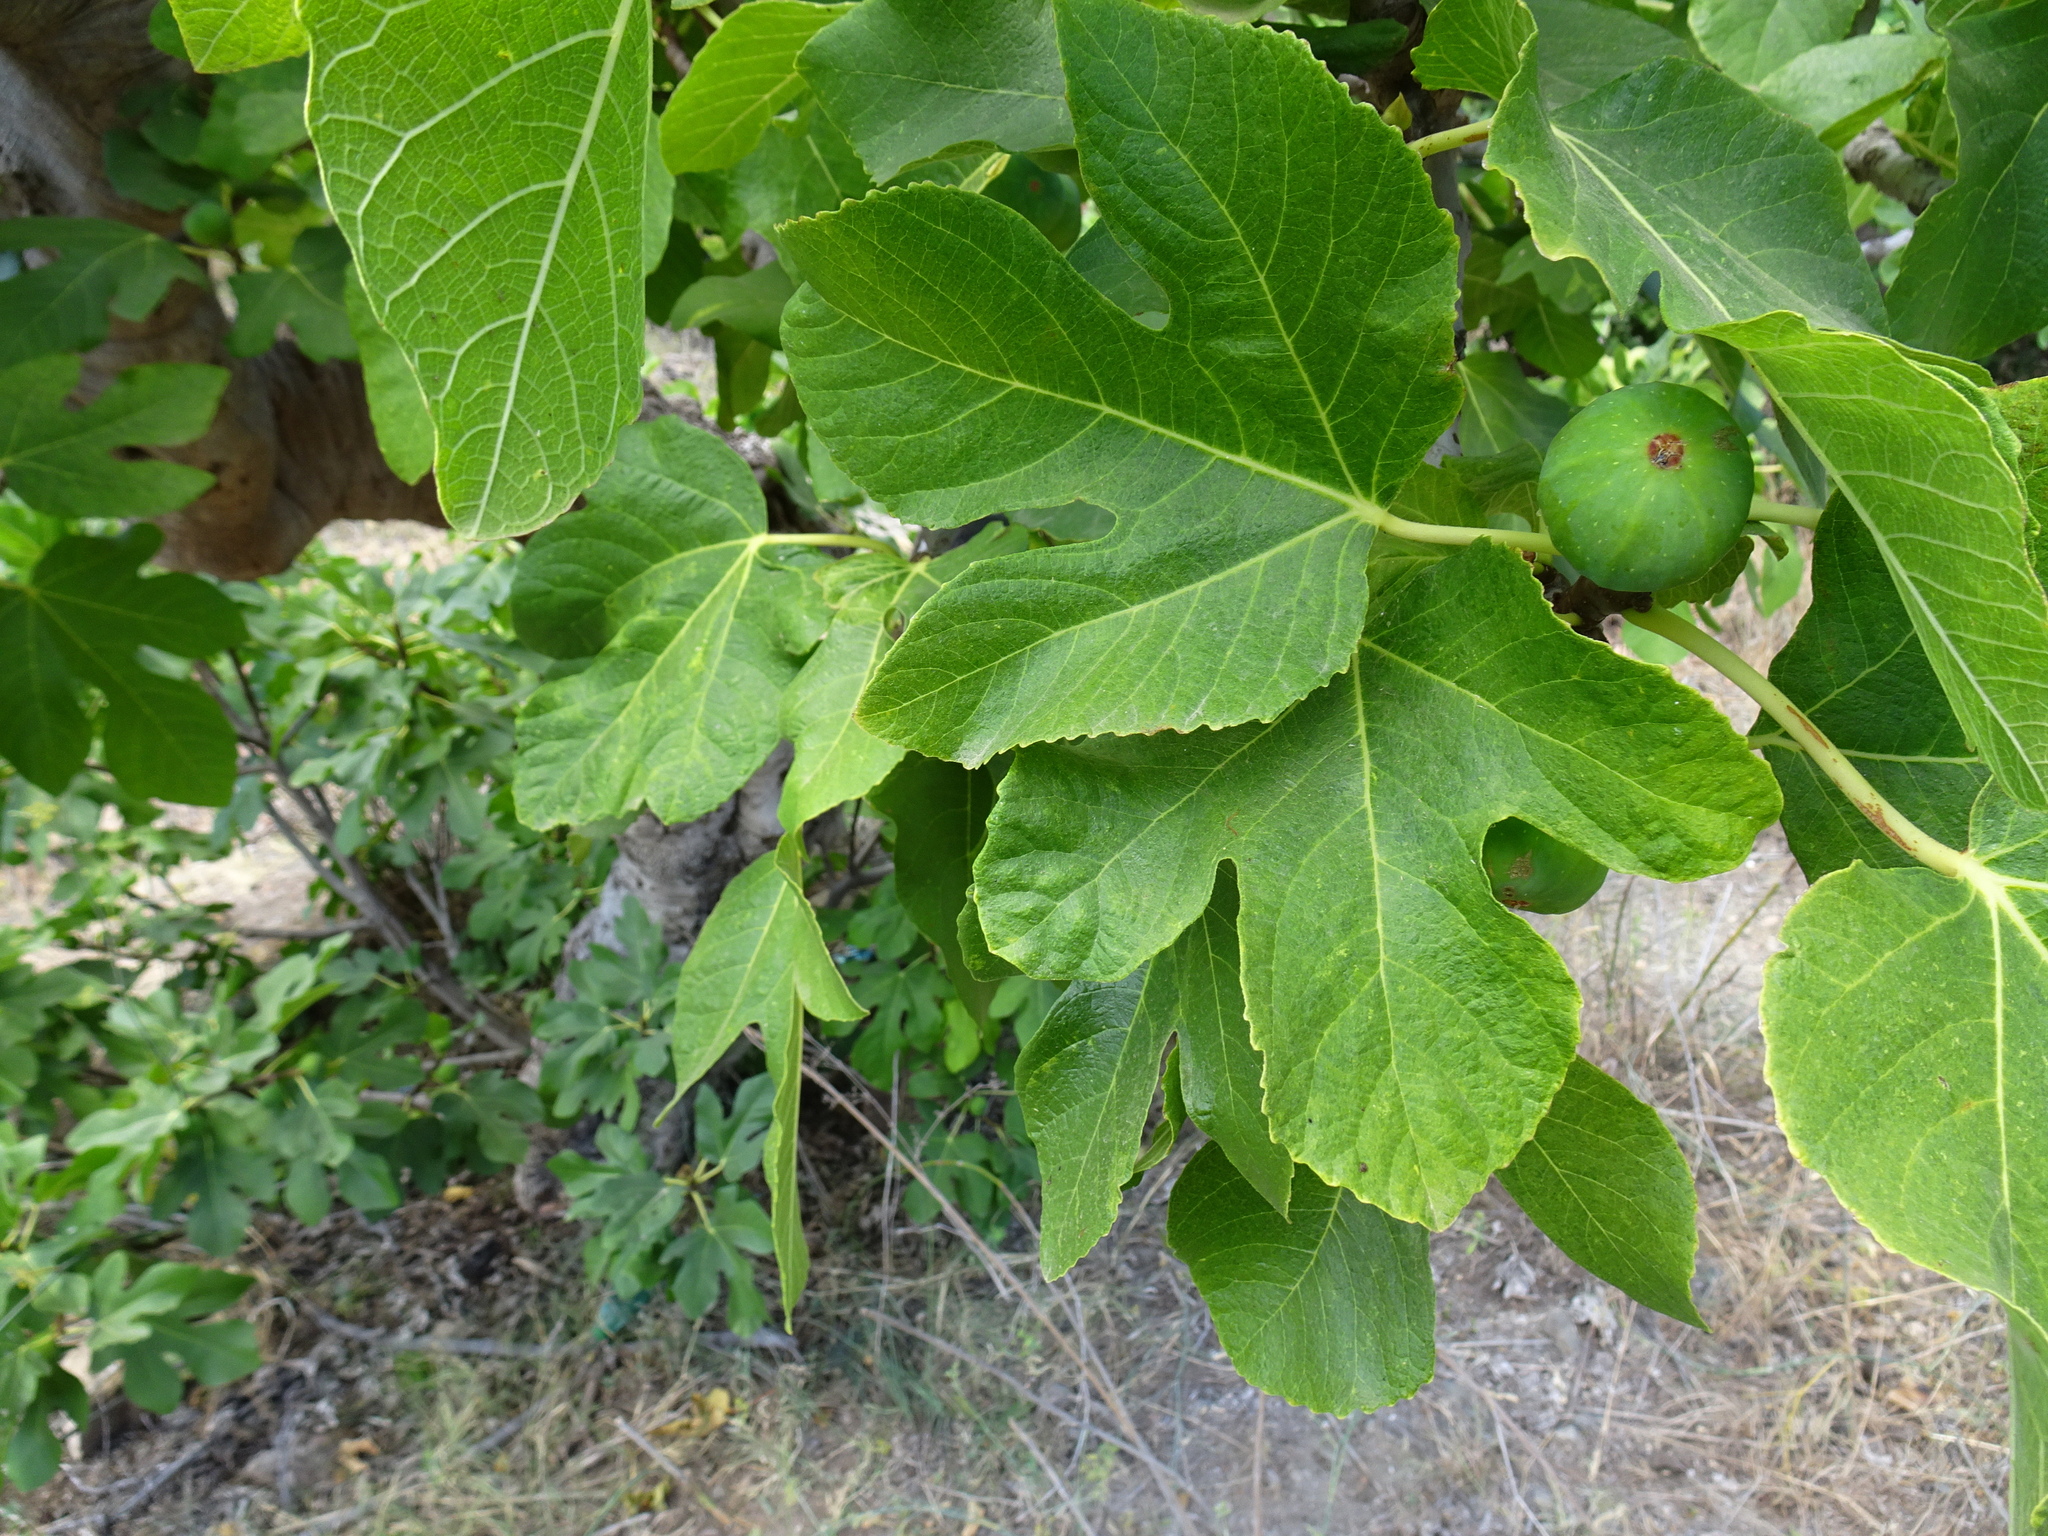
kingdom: Plantae
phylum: Tracheophyta
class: Magnoliopsida
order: Rosales
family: Moraceae
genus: Ficus
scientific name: Ficus carica
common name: Fig
